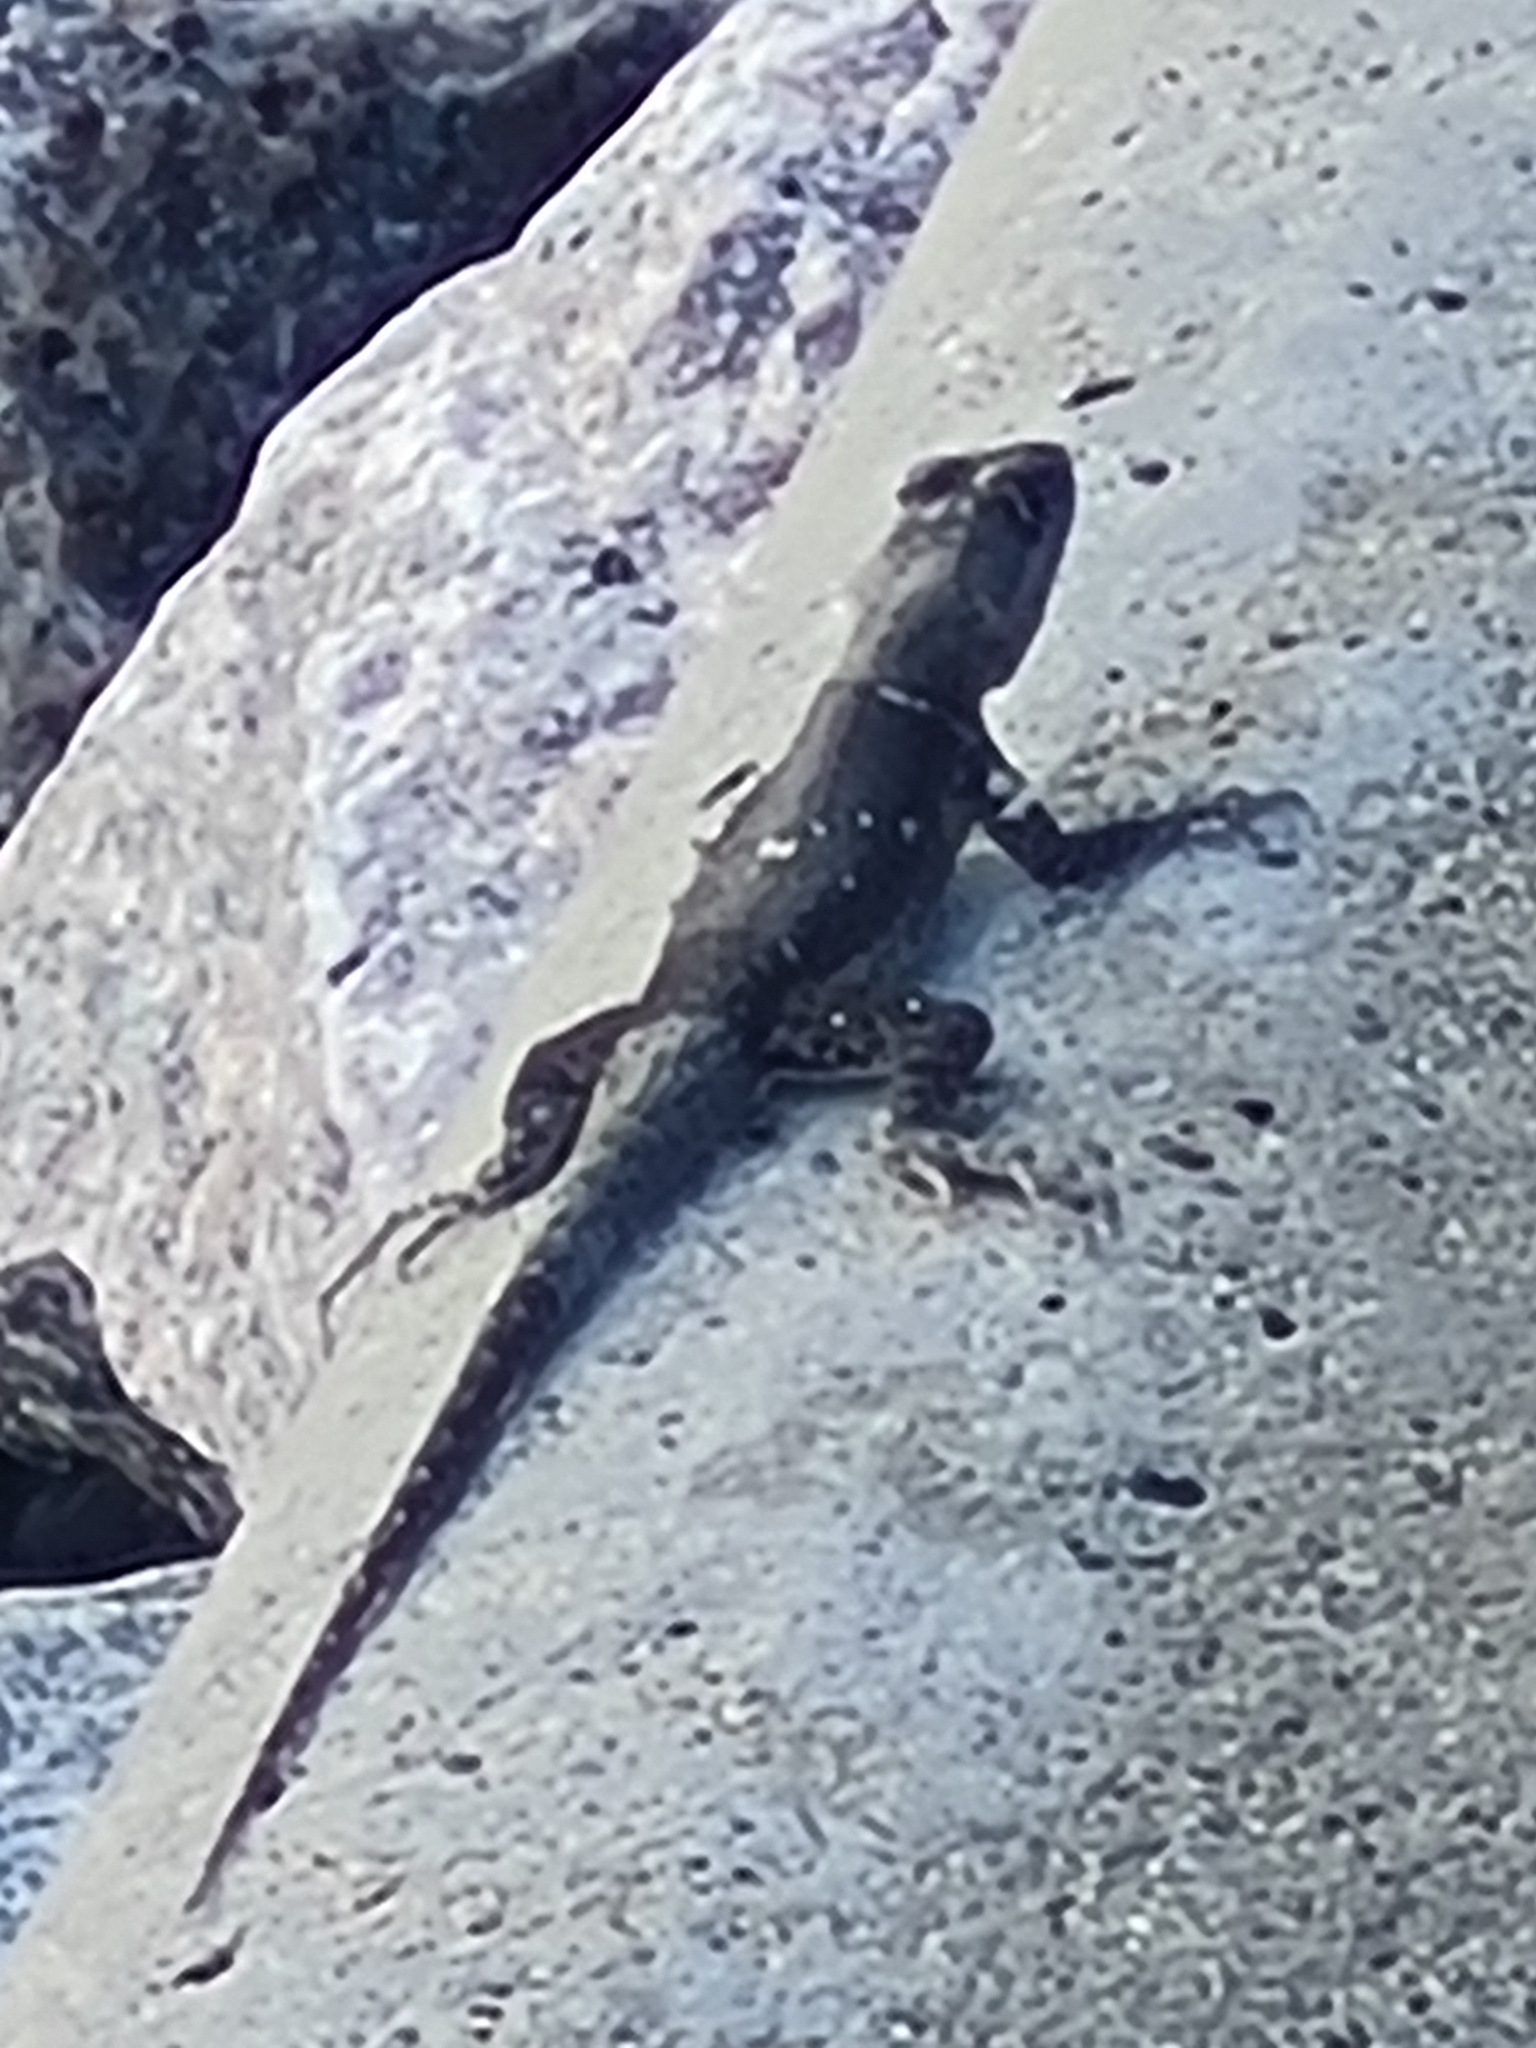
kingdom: Animalia
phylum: Chordata
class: Squamata
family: Tropiduridae
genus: Tropidurus
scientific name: Tropidurus hispidus
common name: Peters' lava lizard
